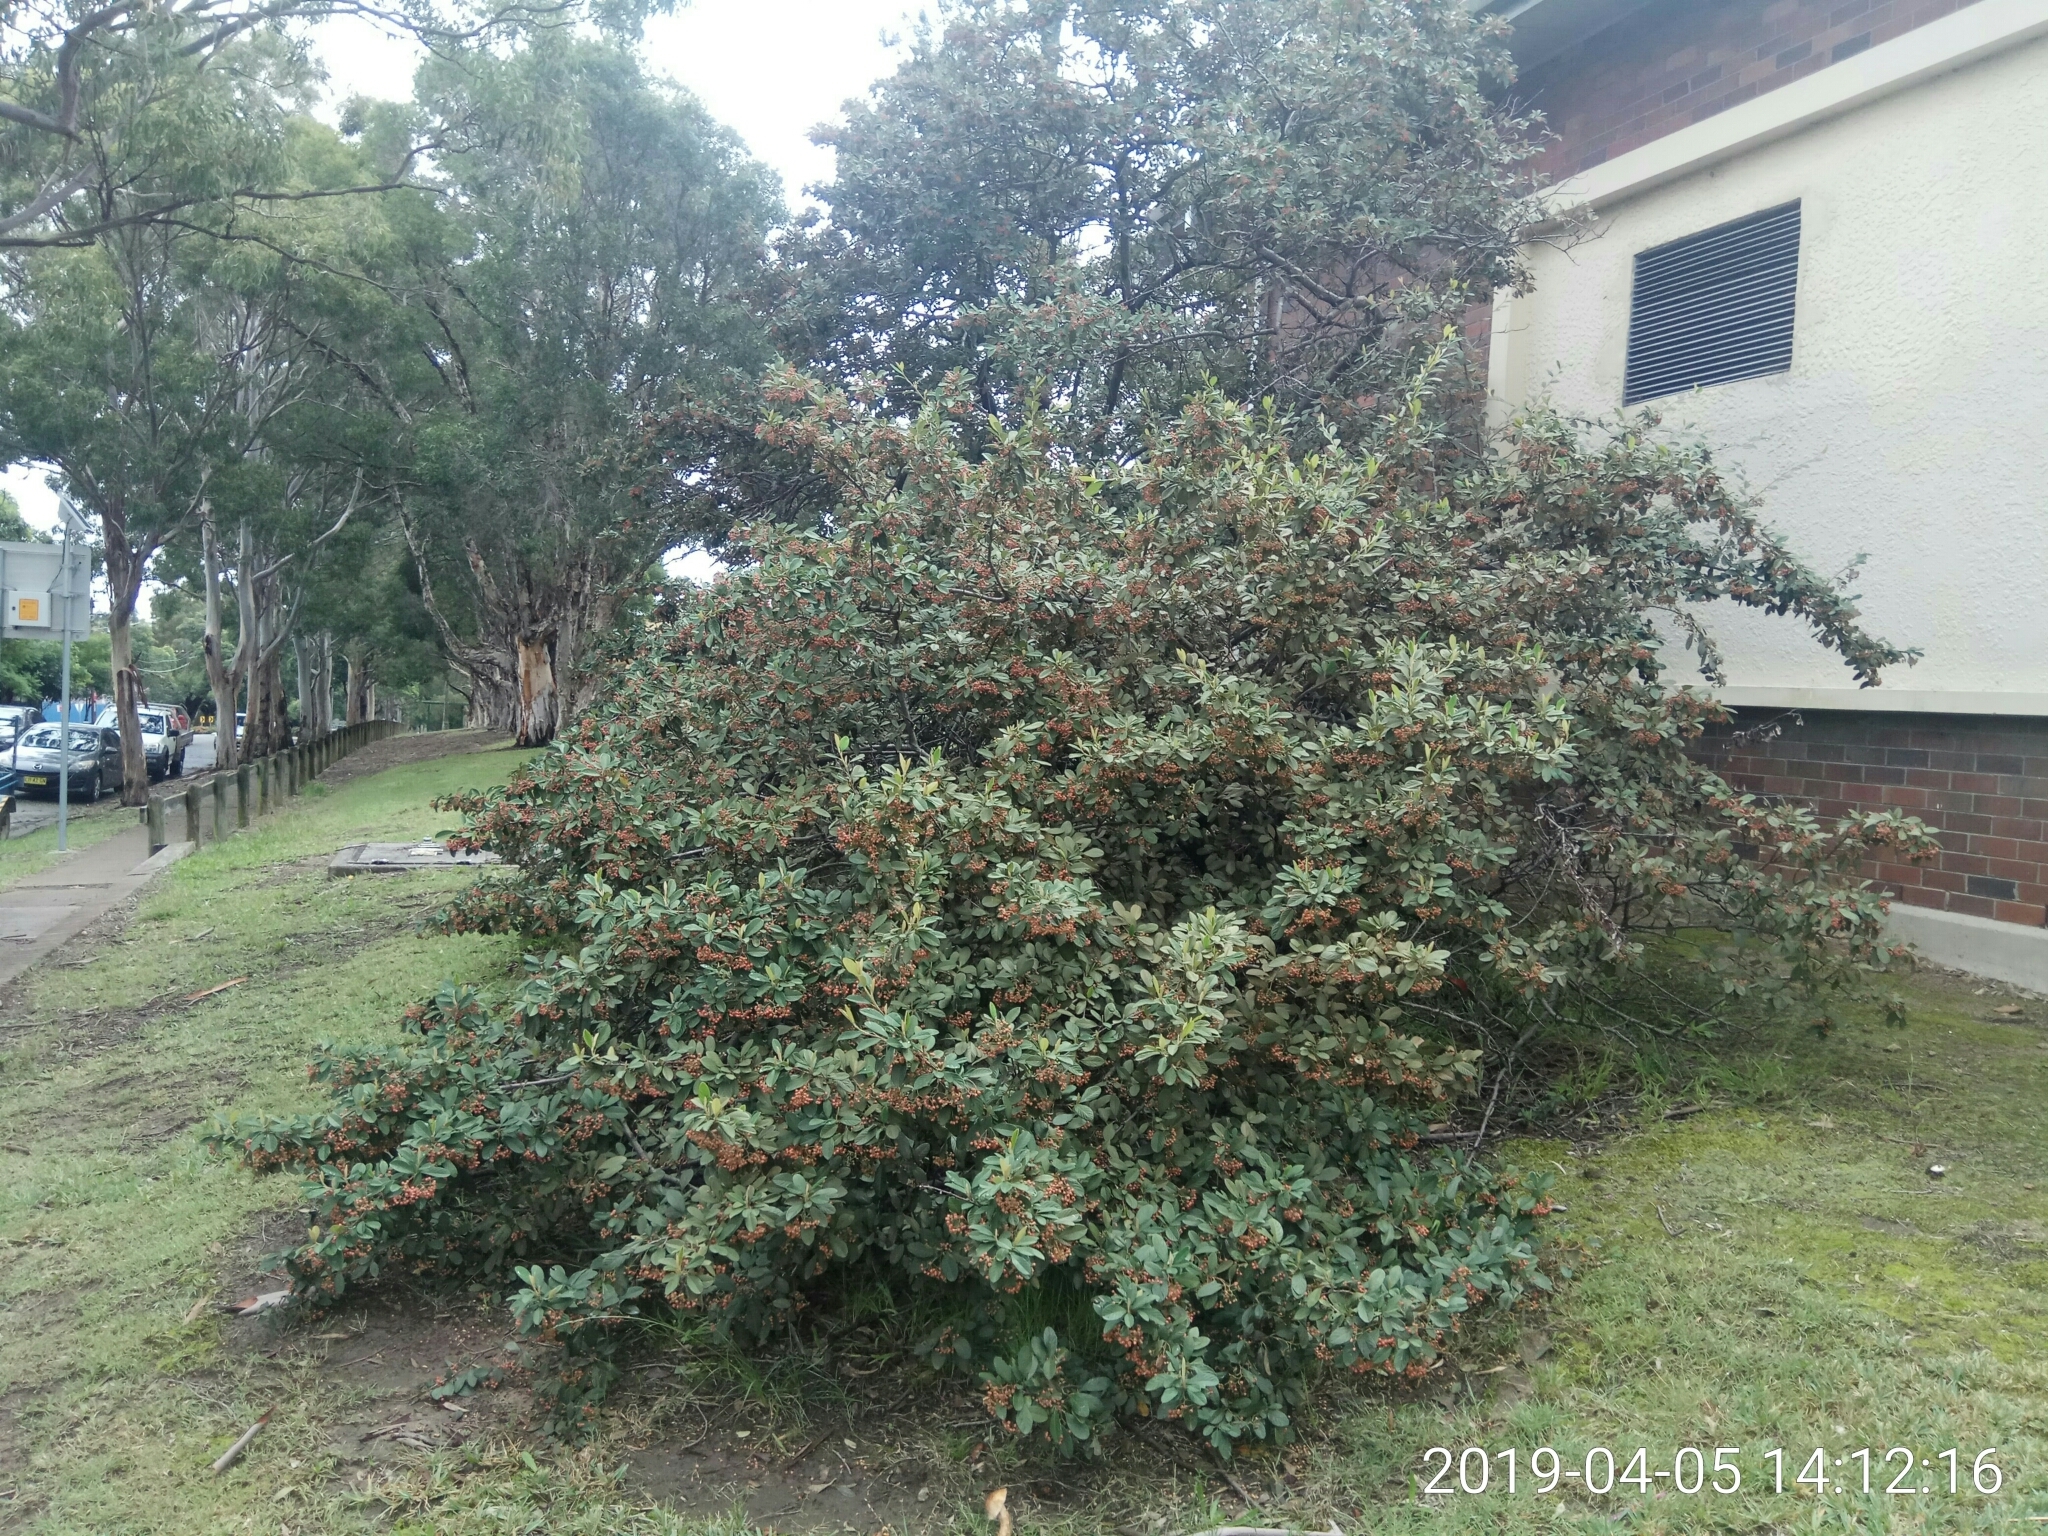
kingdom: Plantae
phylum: Tracheophyta
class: Magnoliopsida
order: Rosales
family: Rosaceae
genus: Cotoneaster
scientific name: Cotoneaster coriaceus
